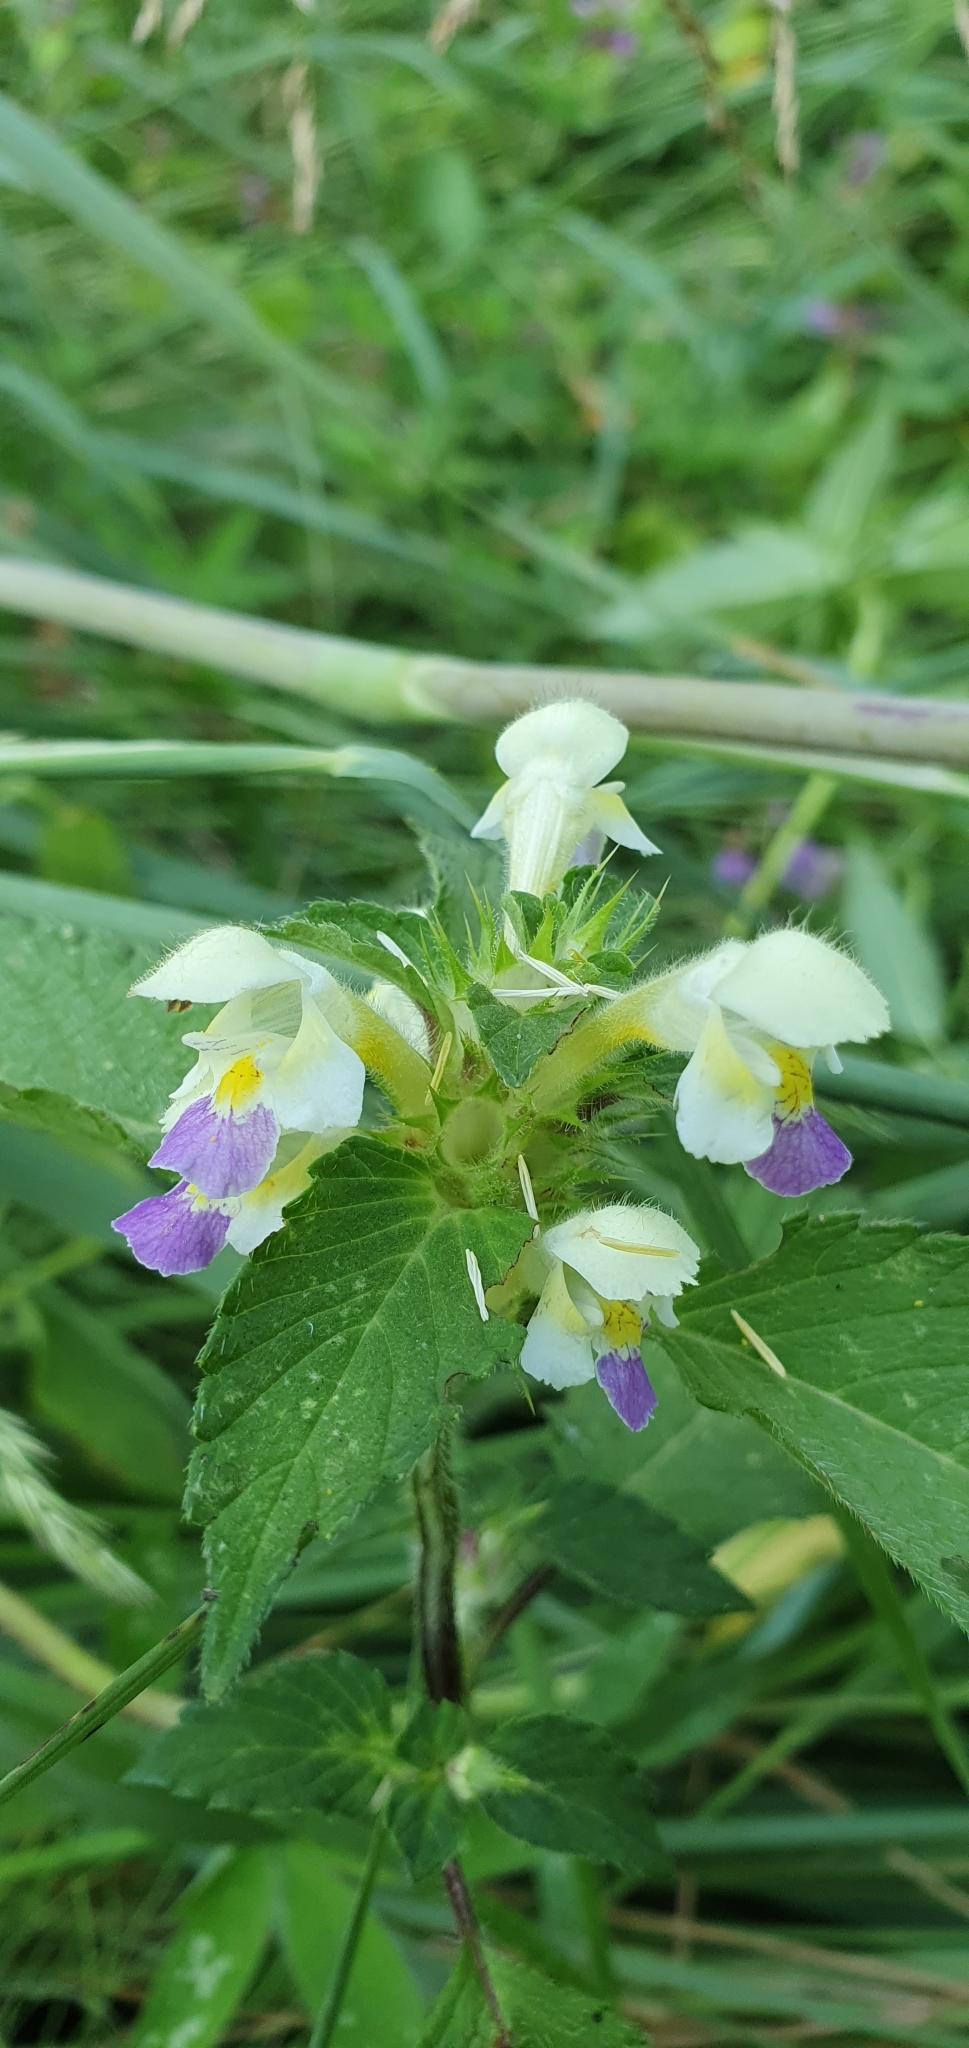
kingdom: Plantae
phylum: Tracheophyta
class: Magnoliopsida
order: Lamiales
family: Lamiaceae
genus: Galeopsis
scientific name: Galeopsis speciosa
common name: Large-flowered hemp-nettle
